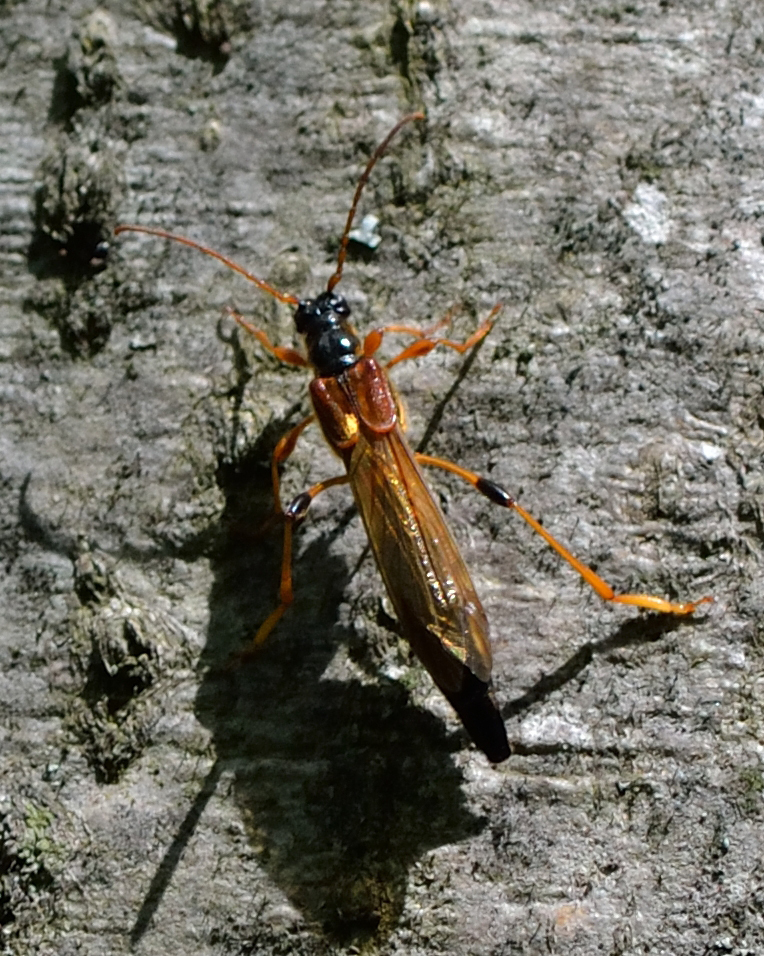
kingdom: Animalia
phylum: Arthropoda
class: Insecta
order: Coleoptera
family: Cerambycidae
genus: Necydalis
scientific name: Necydalis major
